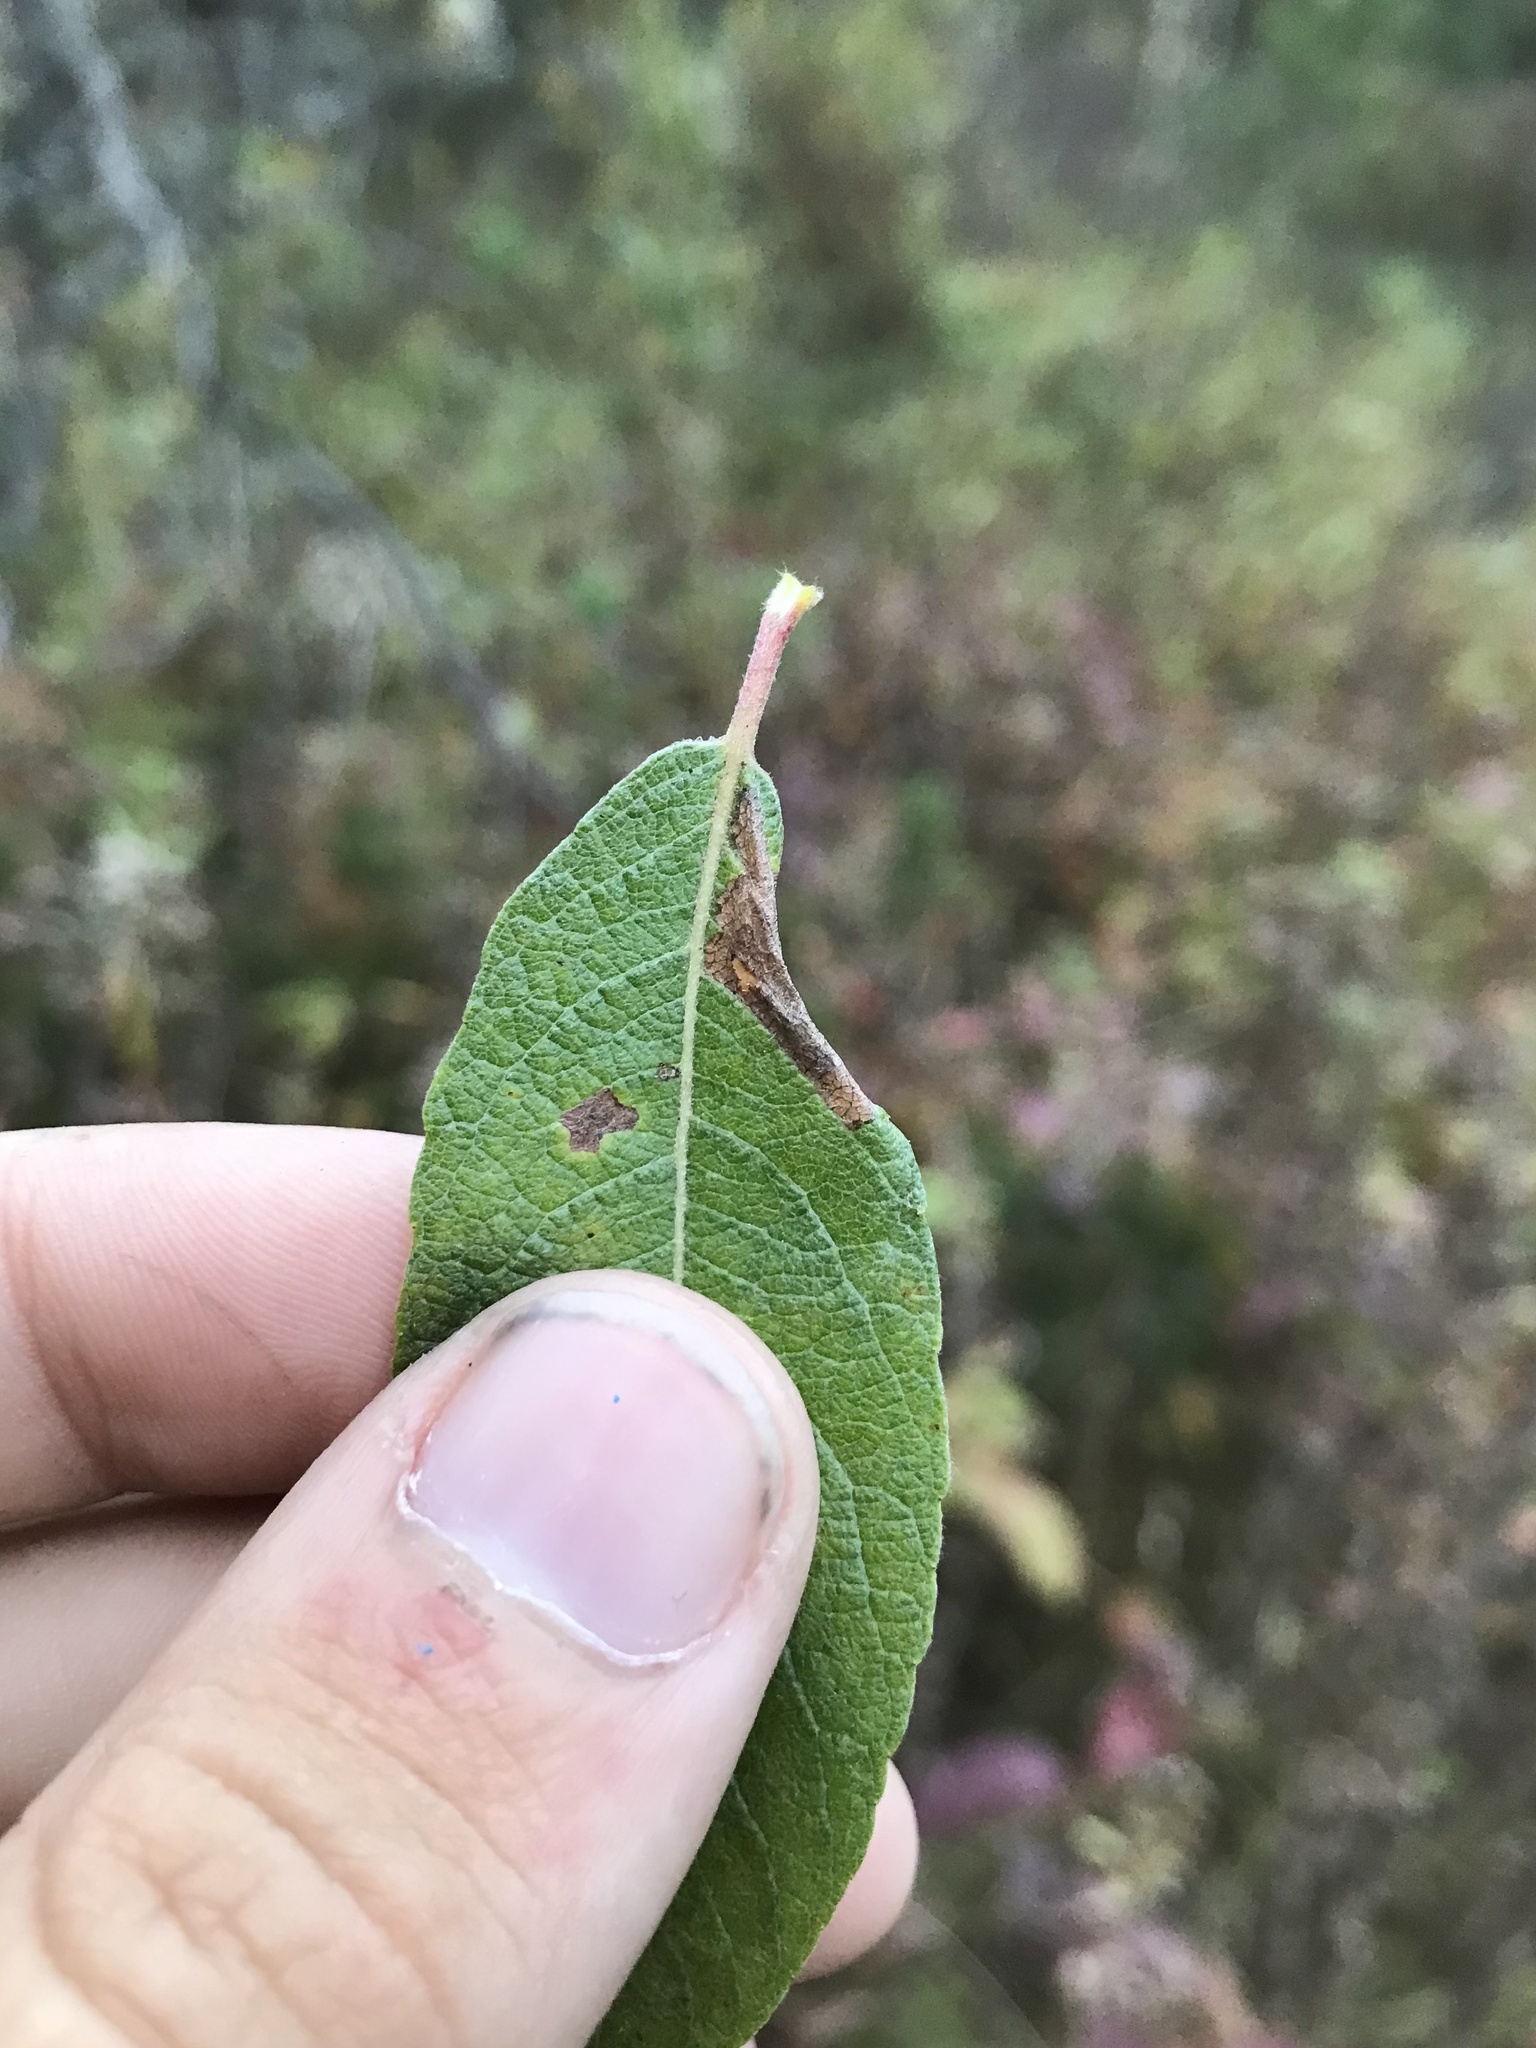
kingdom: Animalia
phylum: Arthropoda
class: Insecta
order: Lepidoptera
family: Gracillariidae
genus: Phyllonorycter
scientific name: Phyllonorycter scudderella
